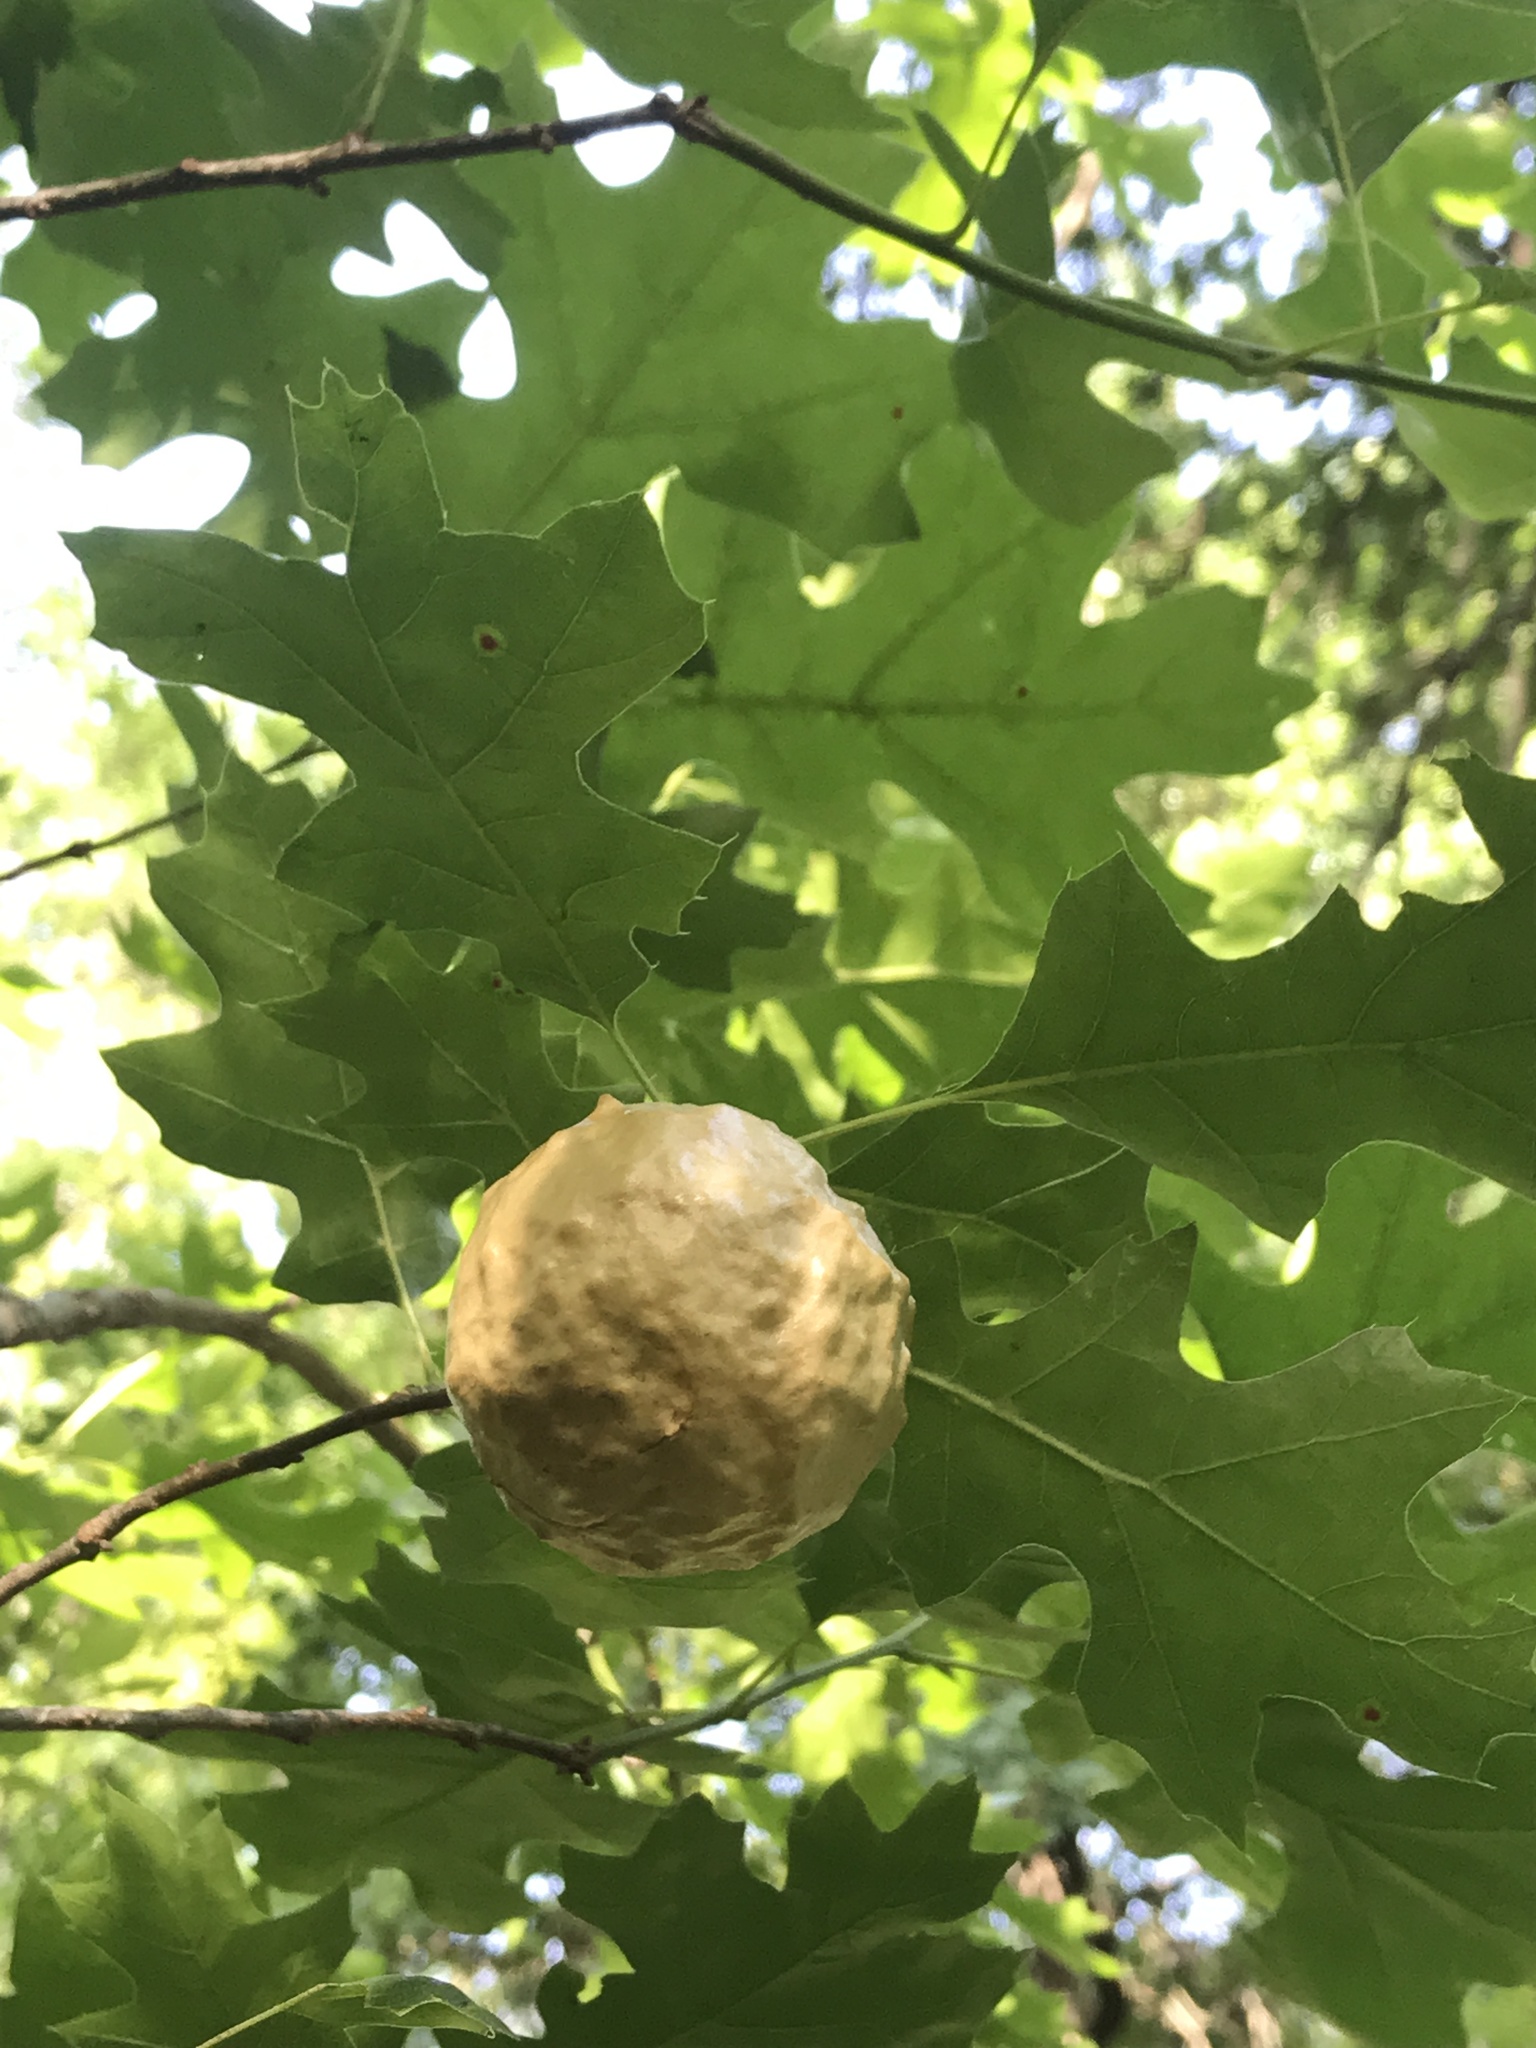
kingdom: Animalia
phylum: Arthropoda
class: Insecta
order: Hymenoptera
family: Cynipidae
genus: Amphibolips
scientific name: Amphibolips
